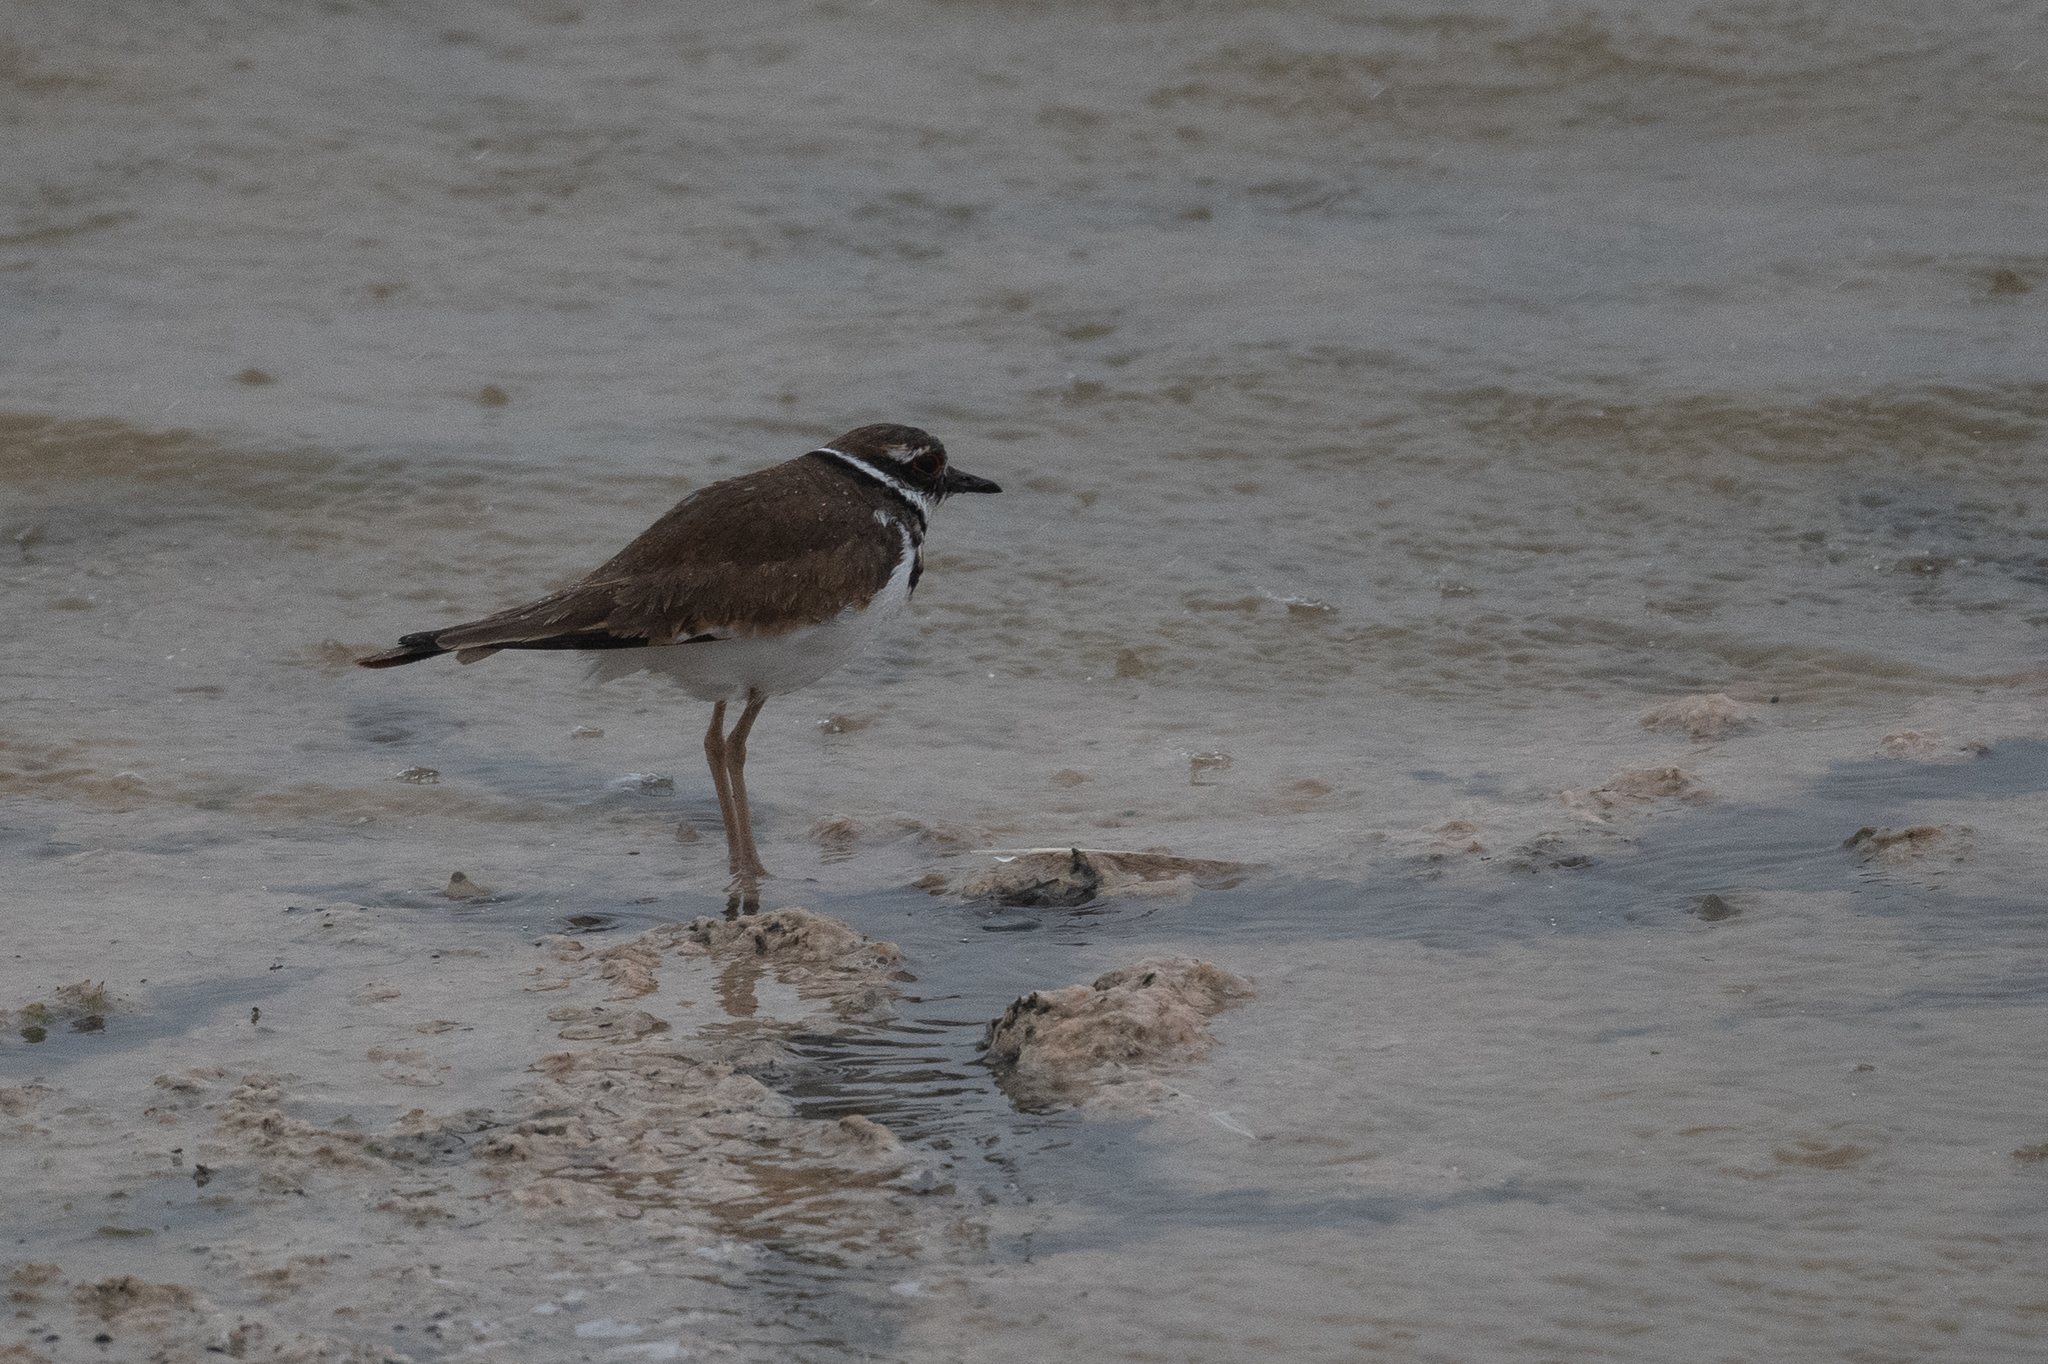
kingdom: Animalia
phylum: Chordata
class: Aves
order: Charadriiformes
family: Charadriidae
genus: Charadrius
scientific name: Charadrius vociferus
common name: Killdeer
